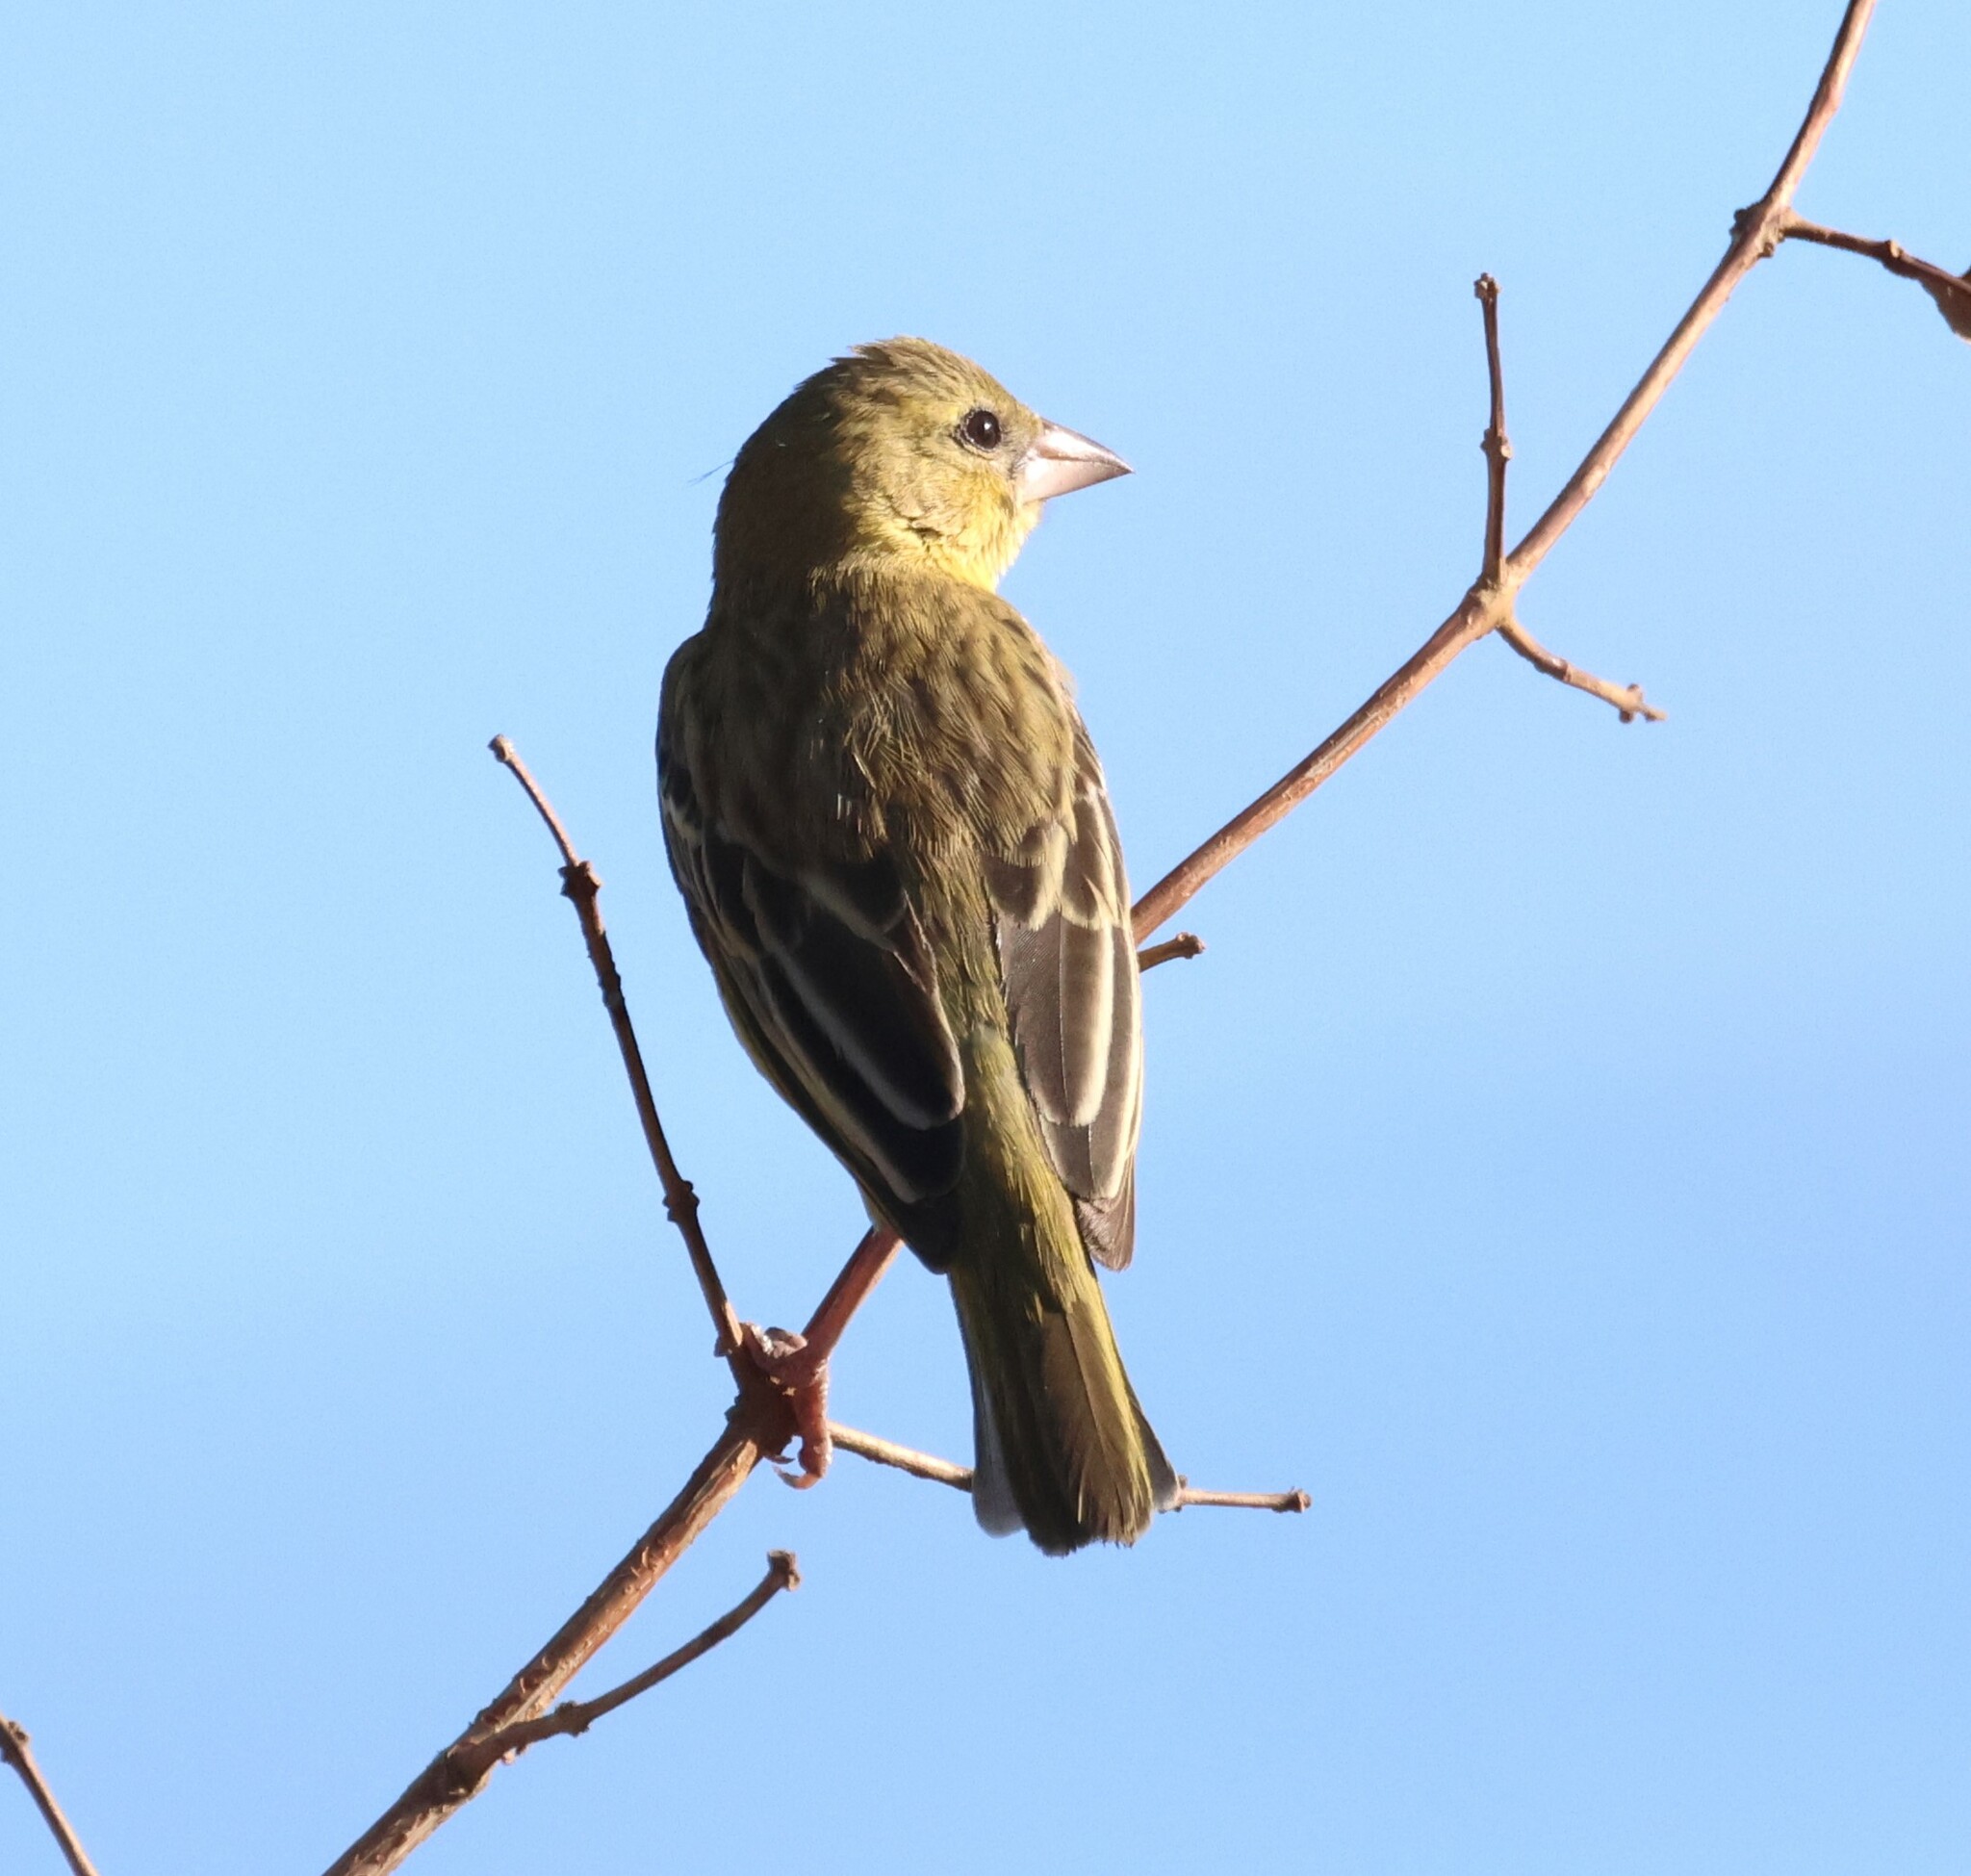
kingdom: Animalia
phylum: Chordata
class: Aves
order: Passeriformes
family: Ploceidae
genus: Ploceus
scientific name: Ploceus velatus
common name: Southern masked weaver
